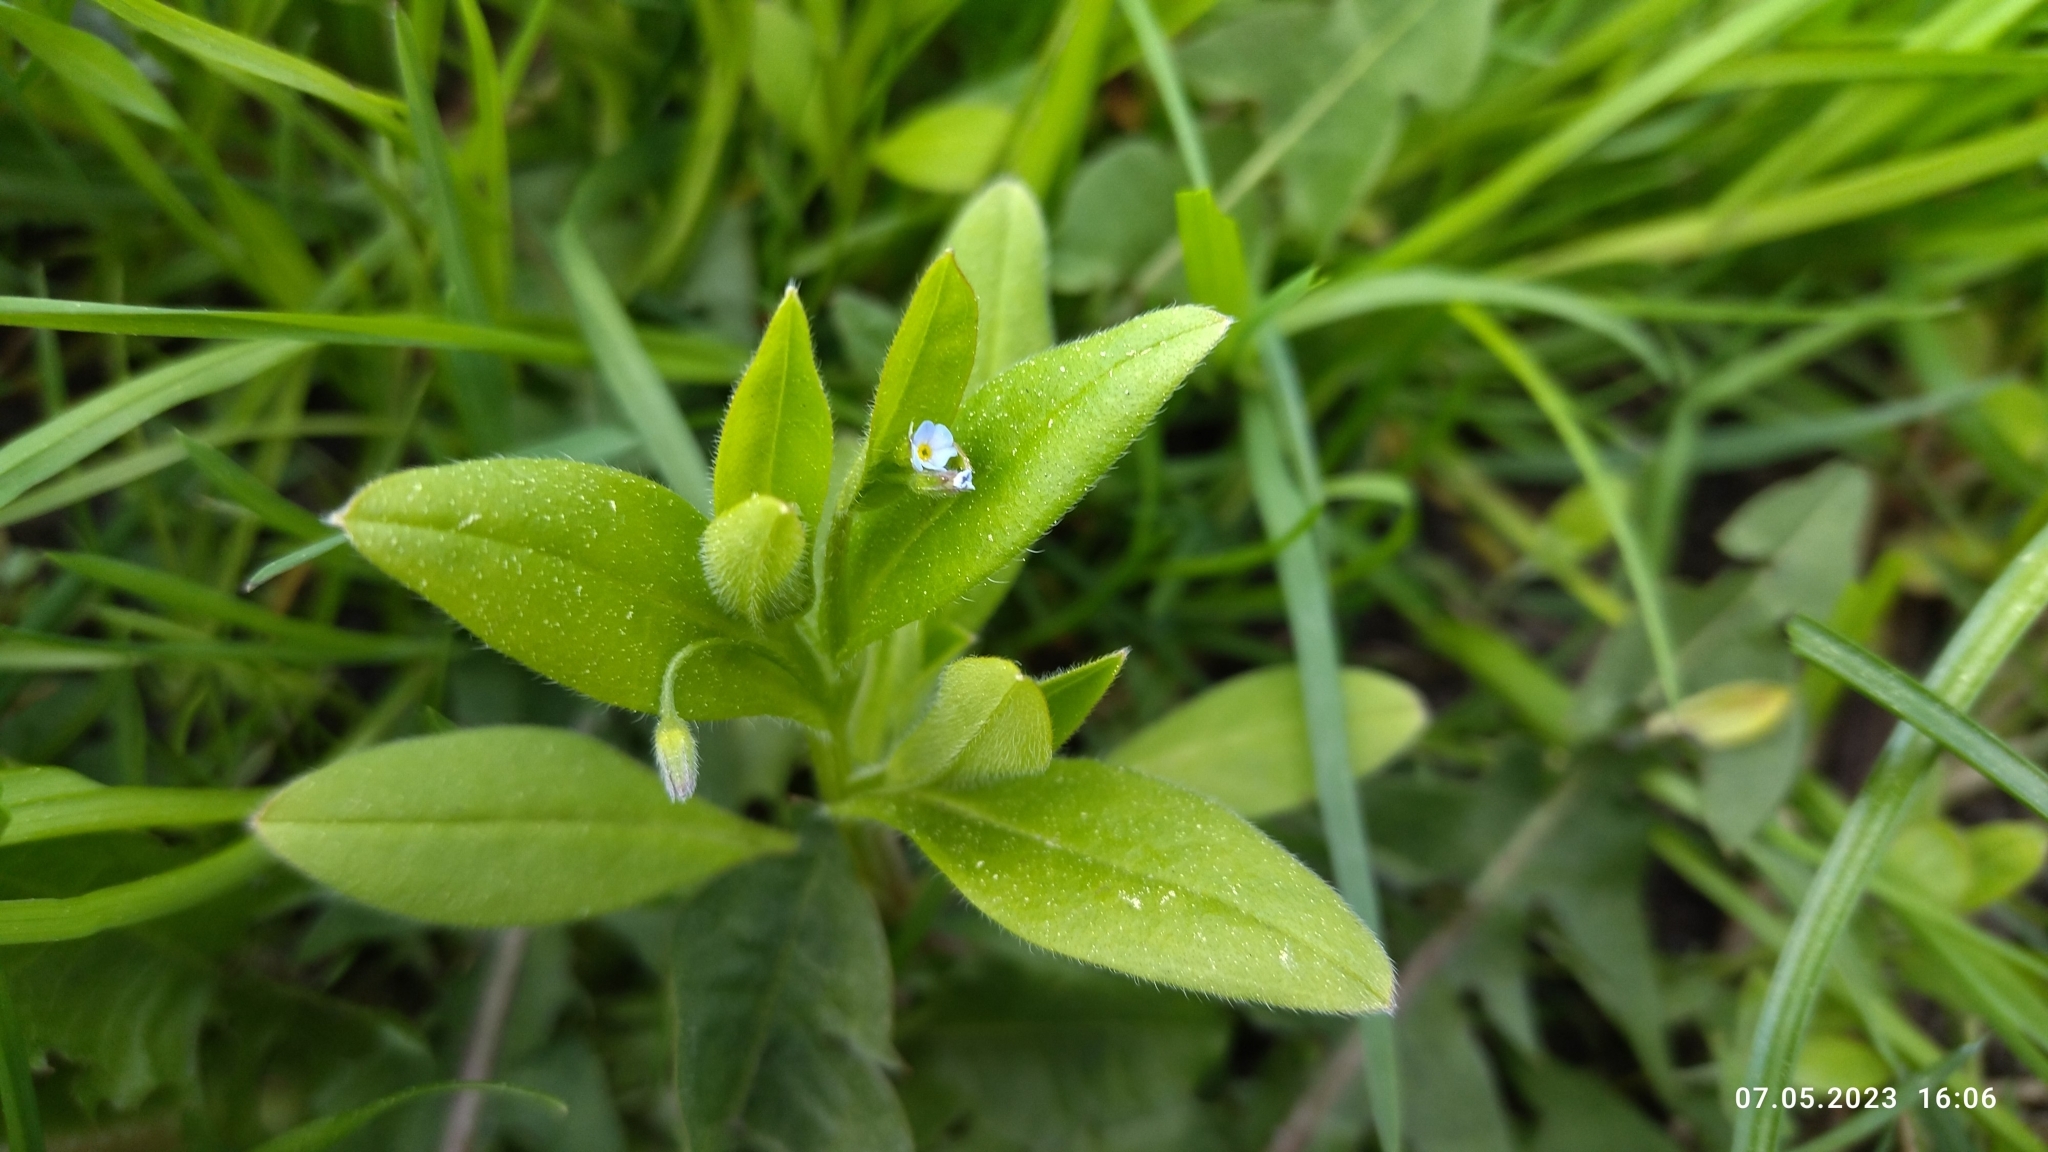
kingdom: Plantae
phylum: Tracheophyta
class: Magnoliopsida
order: Boraginales
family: Boraginaceae
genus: Myosotis
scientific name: Myosotis sparsiflora
